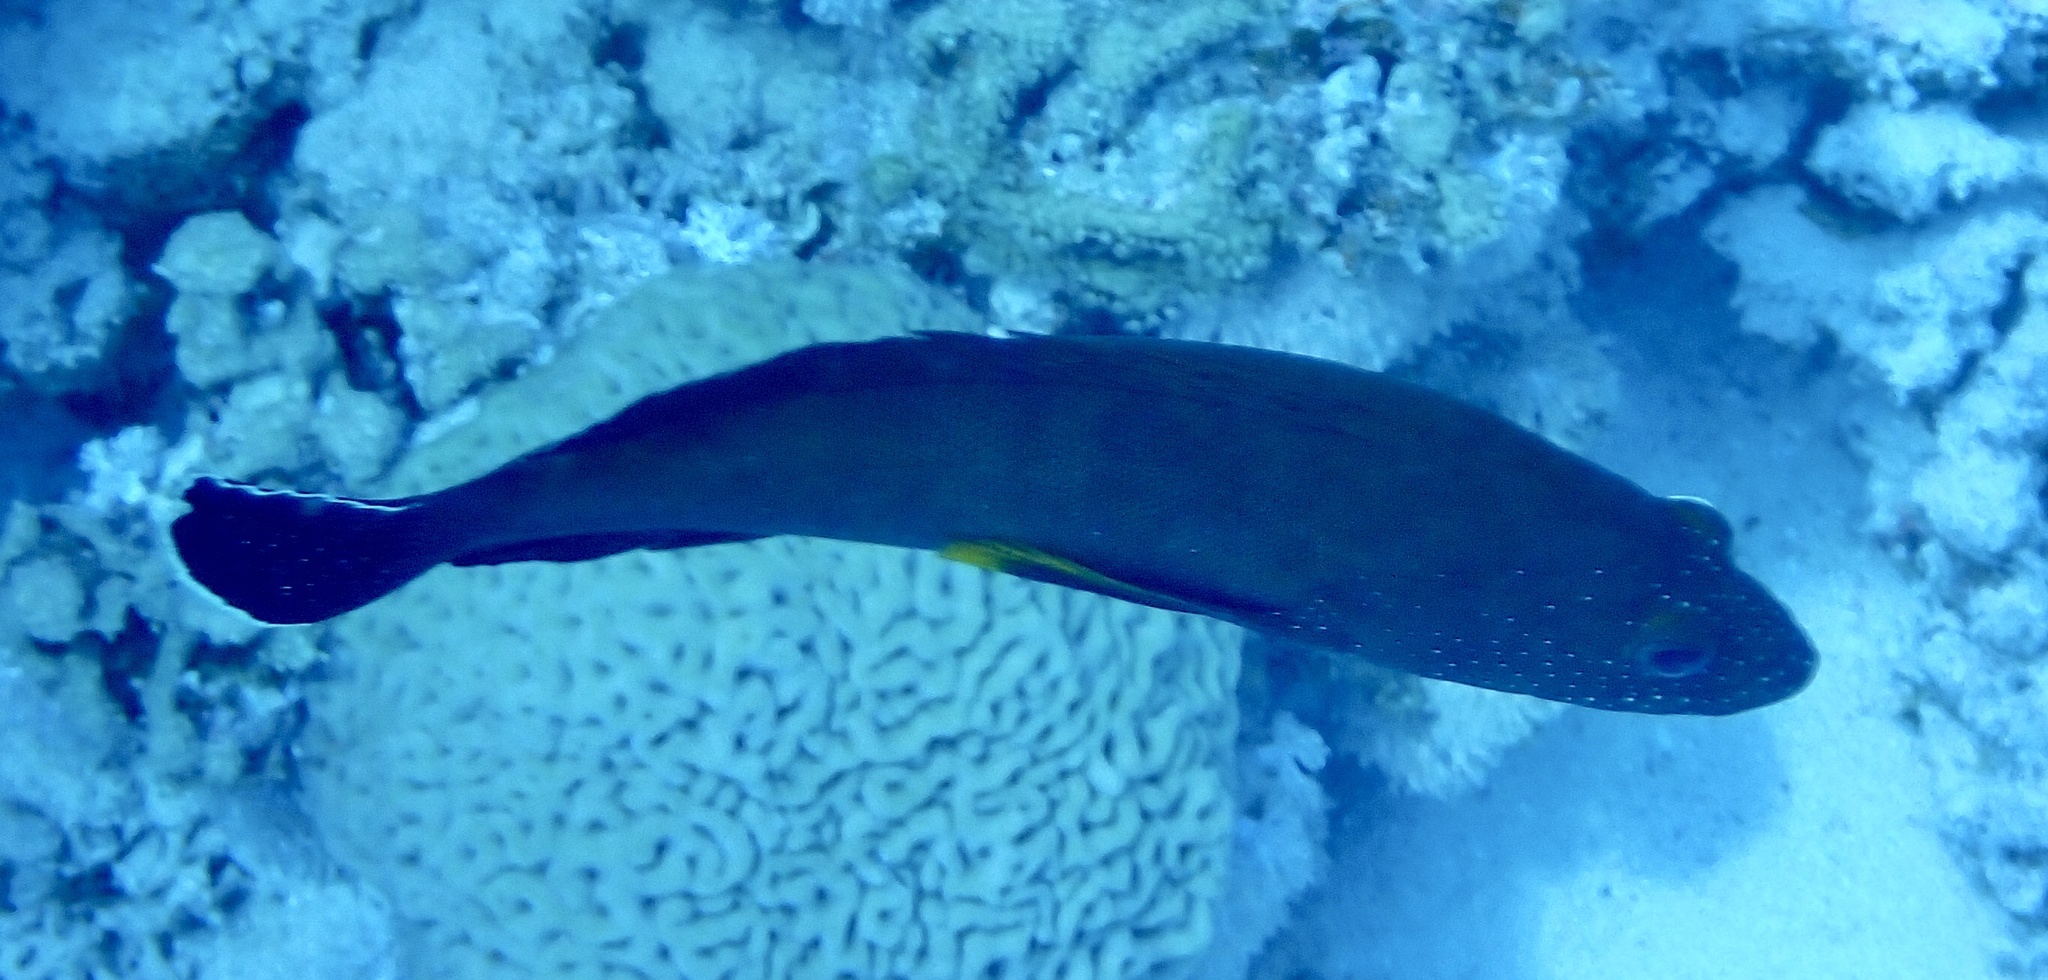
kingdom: Animalia
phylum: Chordata
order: Perciformes
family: Serranidae
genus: Cephalopholis
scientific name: Cephalopholis hemistiktos
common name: Halfspotted hind
